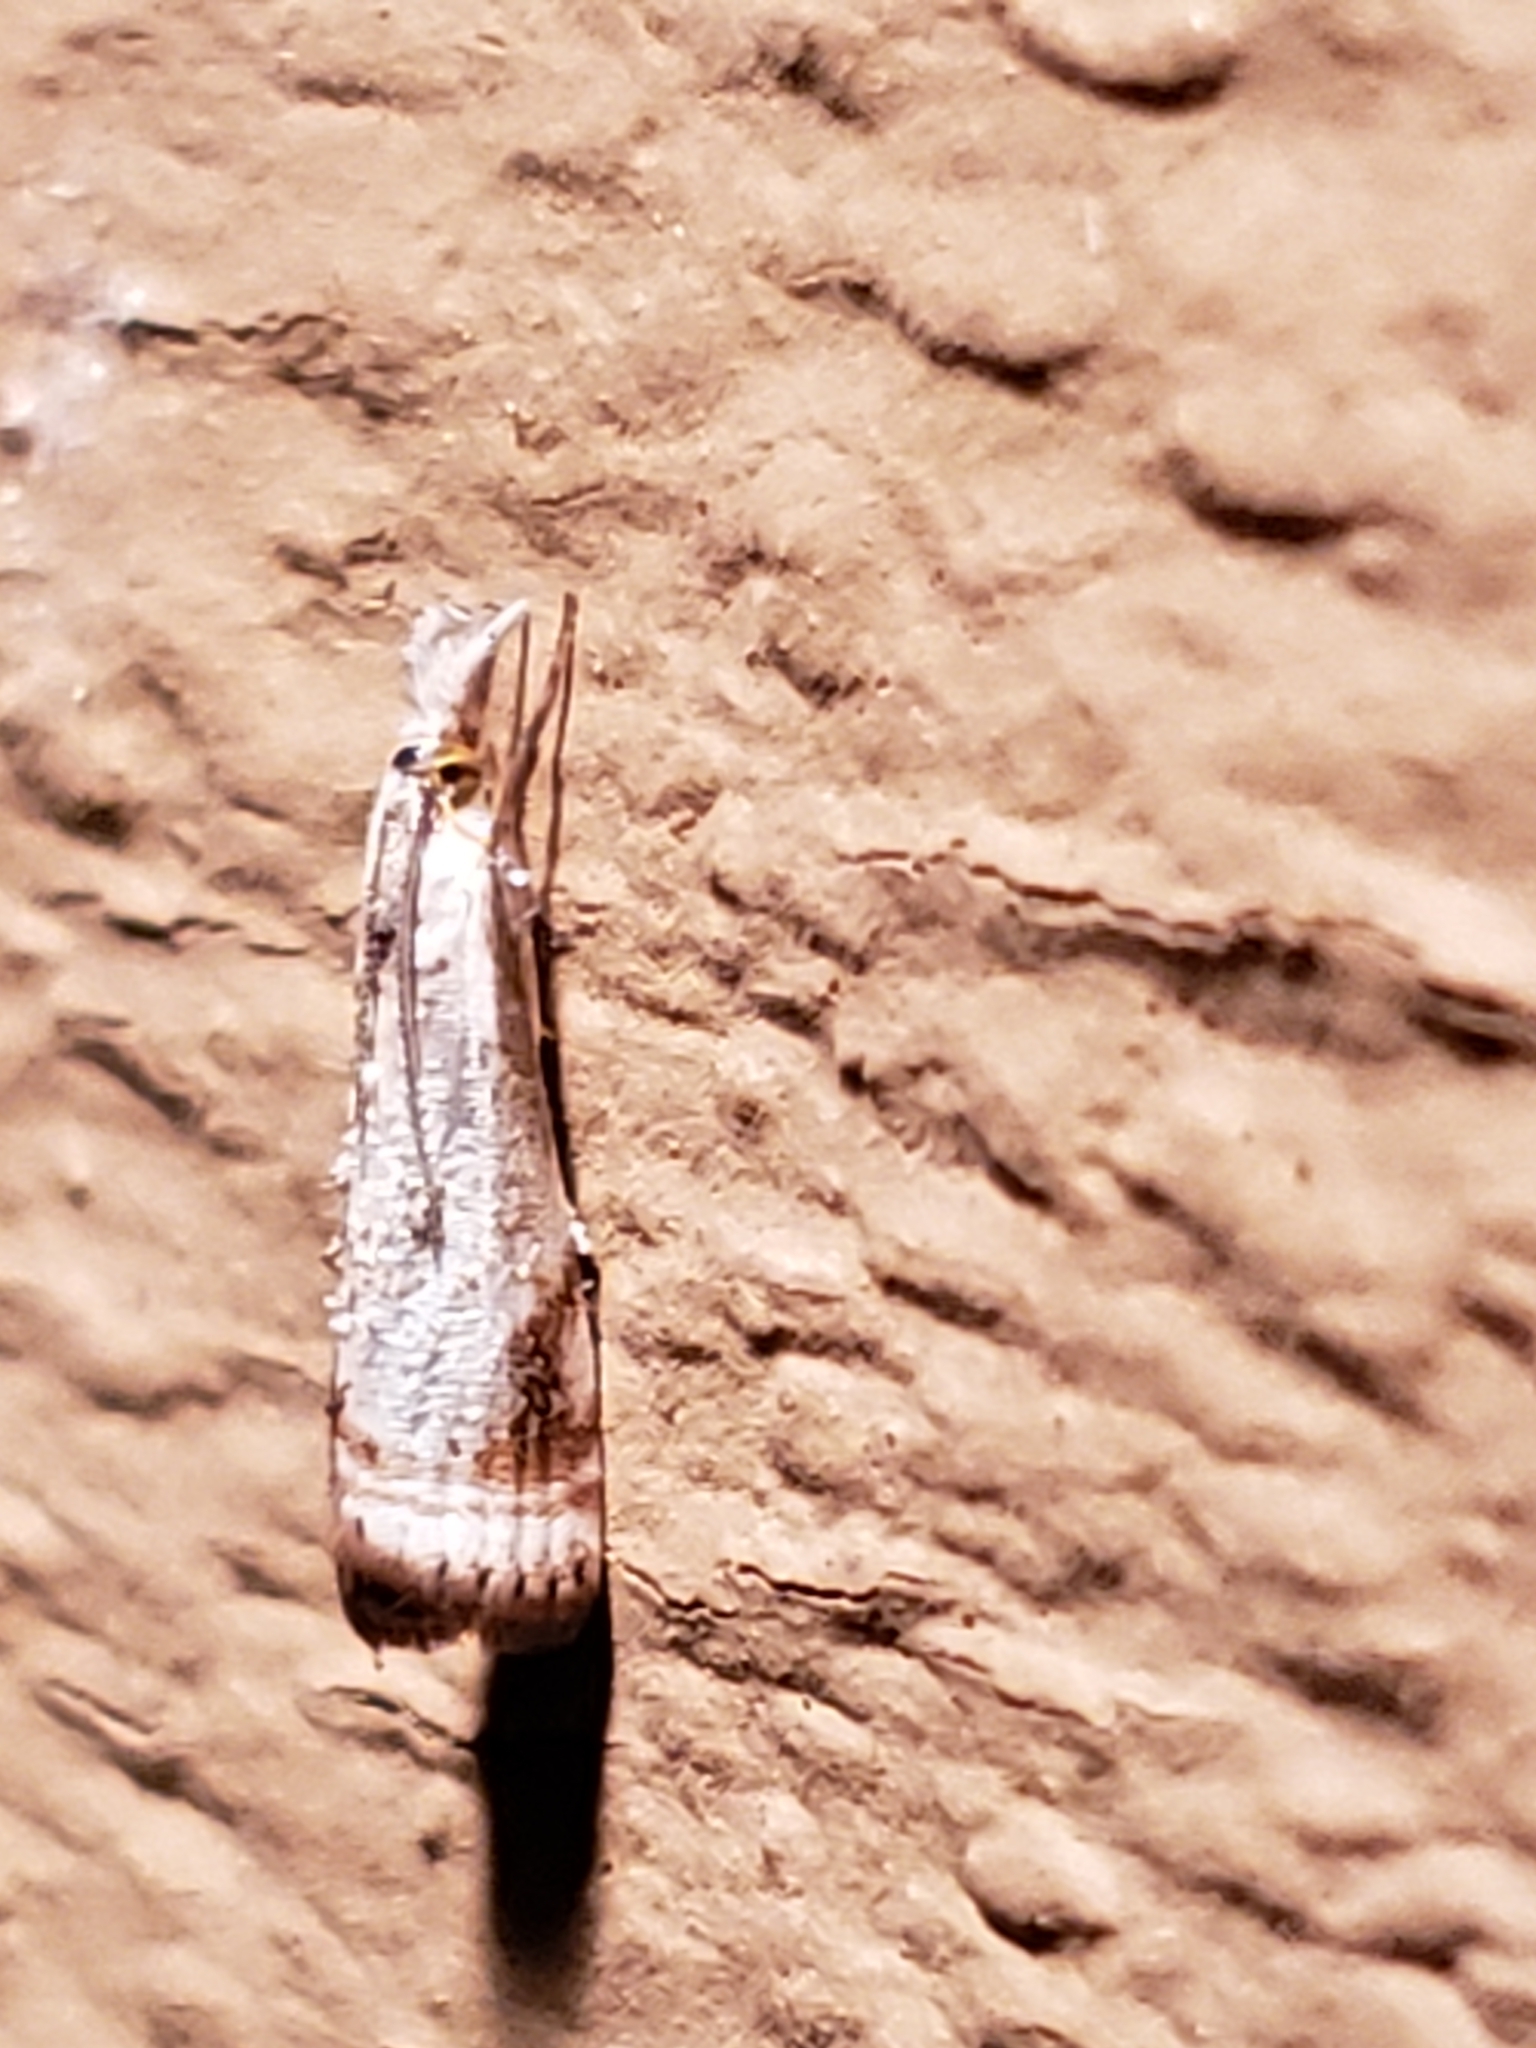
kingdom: Animalia
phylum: Arthropoda
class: Insecta
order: Lepidoptera
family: Crambidae
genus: Microcrambus
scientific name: Microcrambus elegans
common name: Elegant grass-veneer
